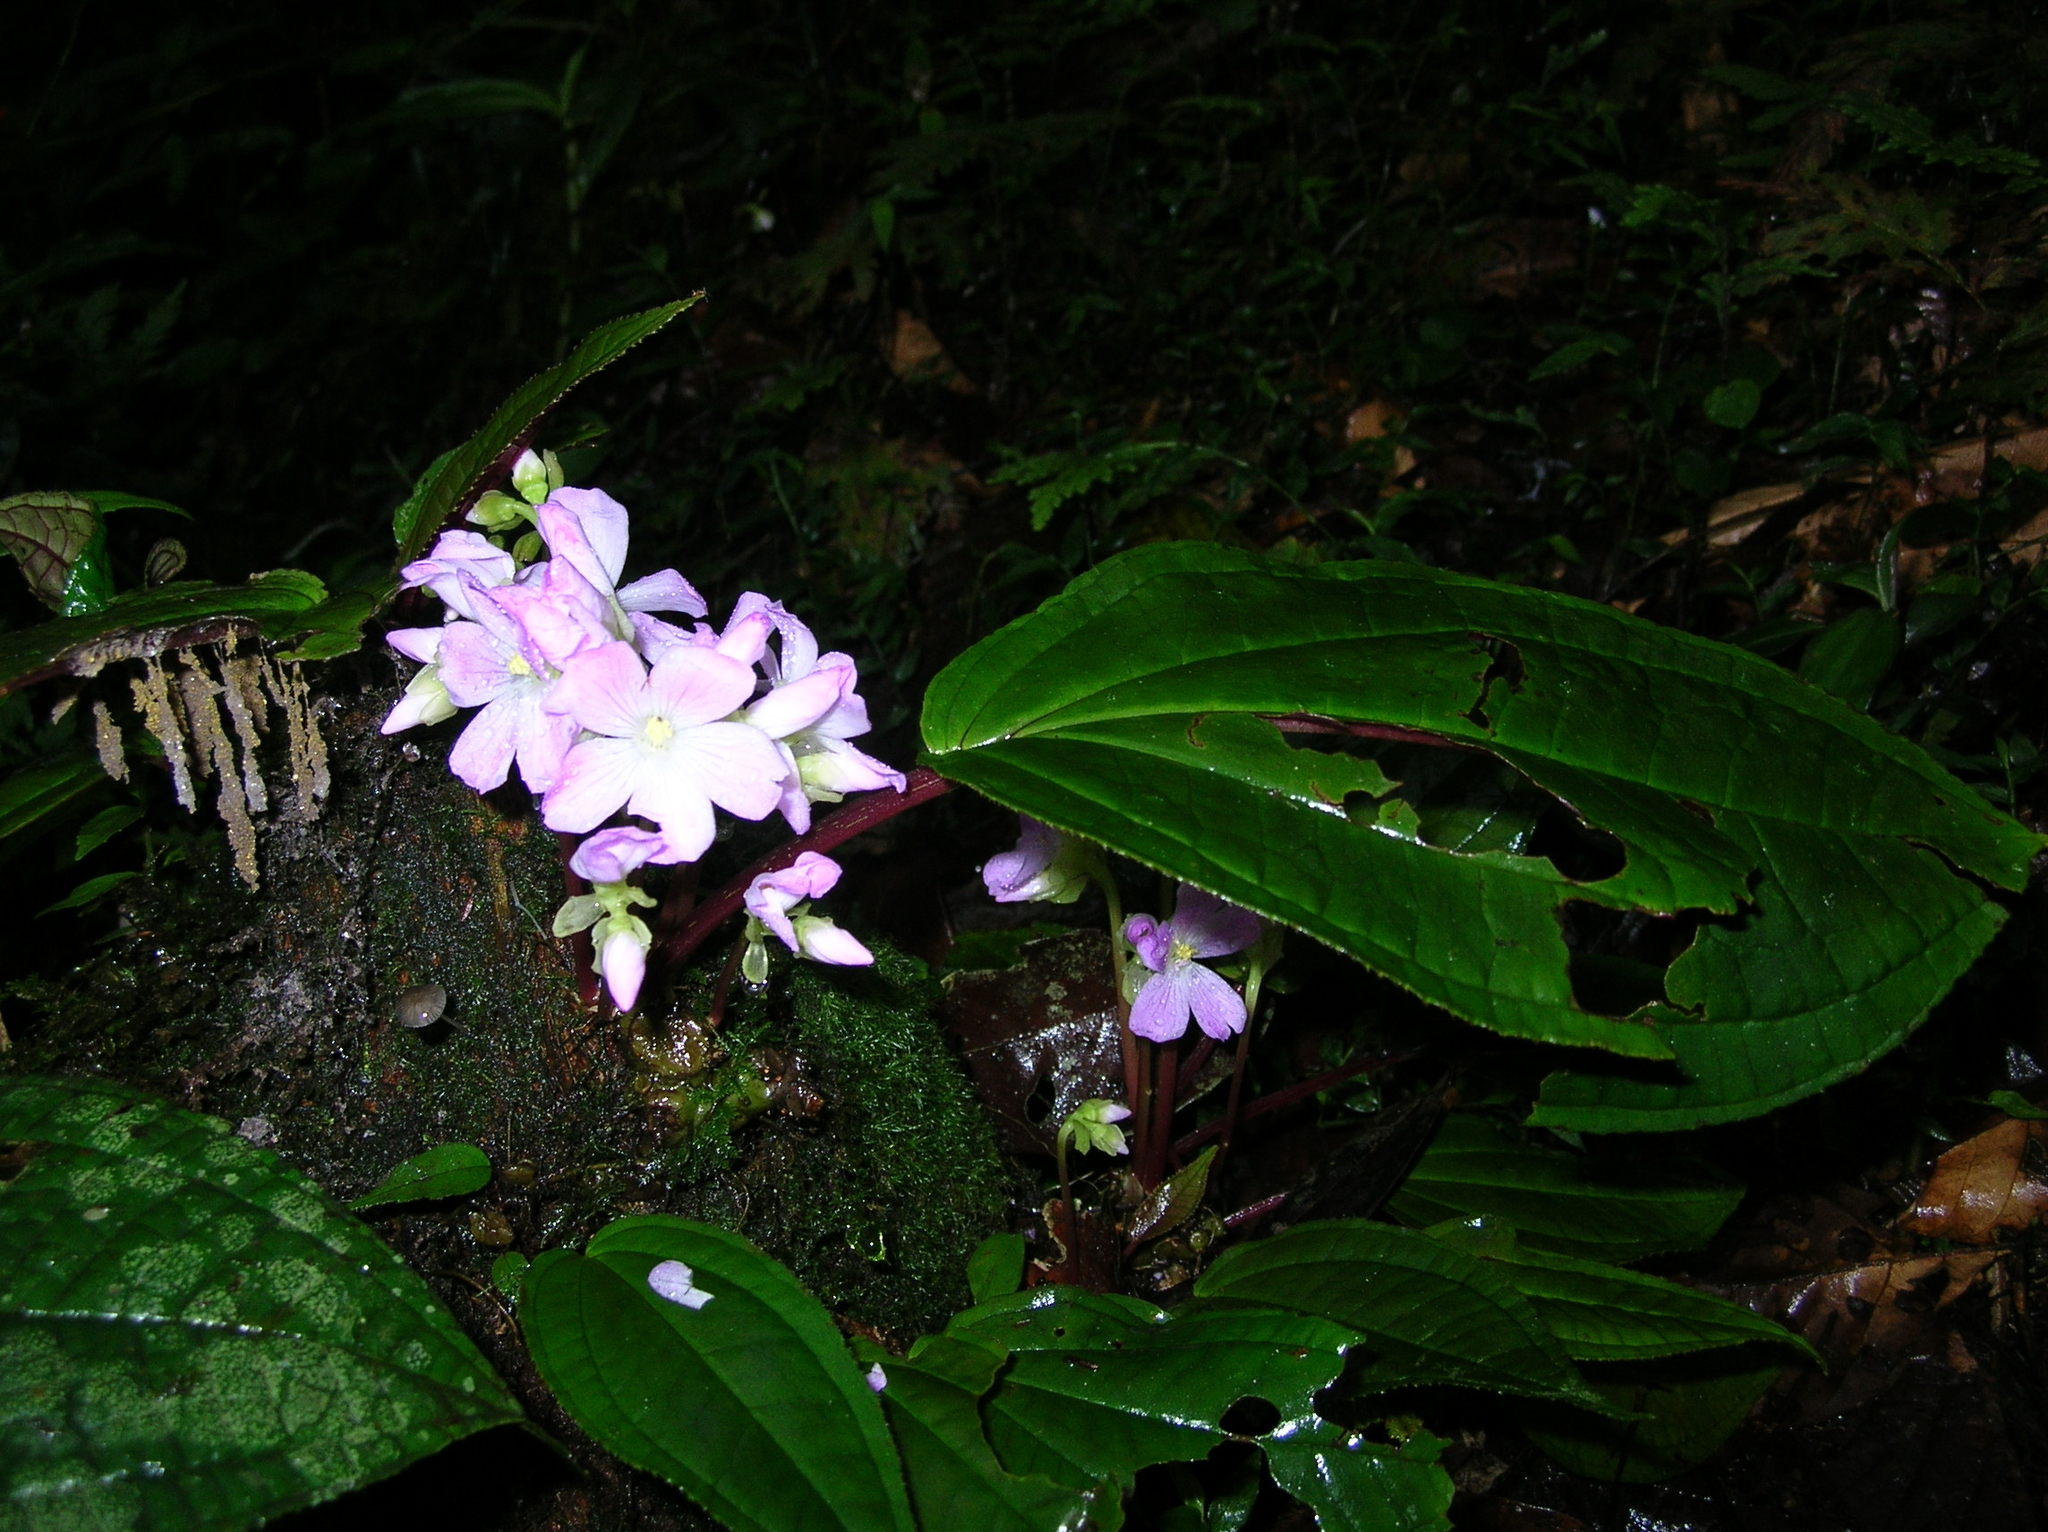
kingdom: Plantae
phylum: Tracheophyta
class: Magnoliopsida
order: Myrtales
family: Melastomataceae
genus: Monolena
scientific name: Monolena primuliflora
